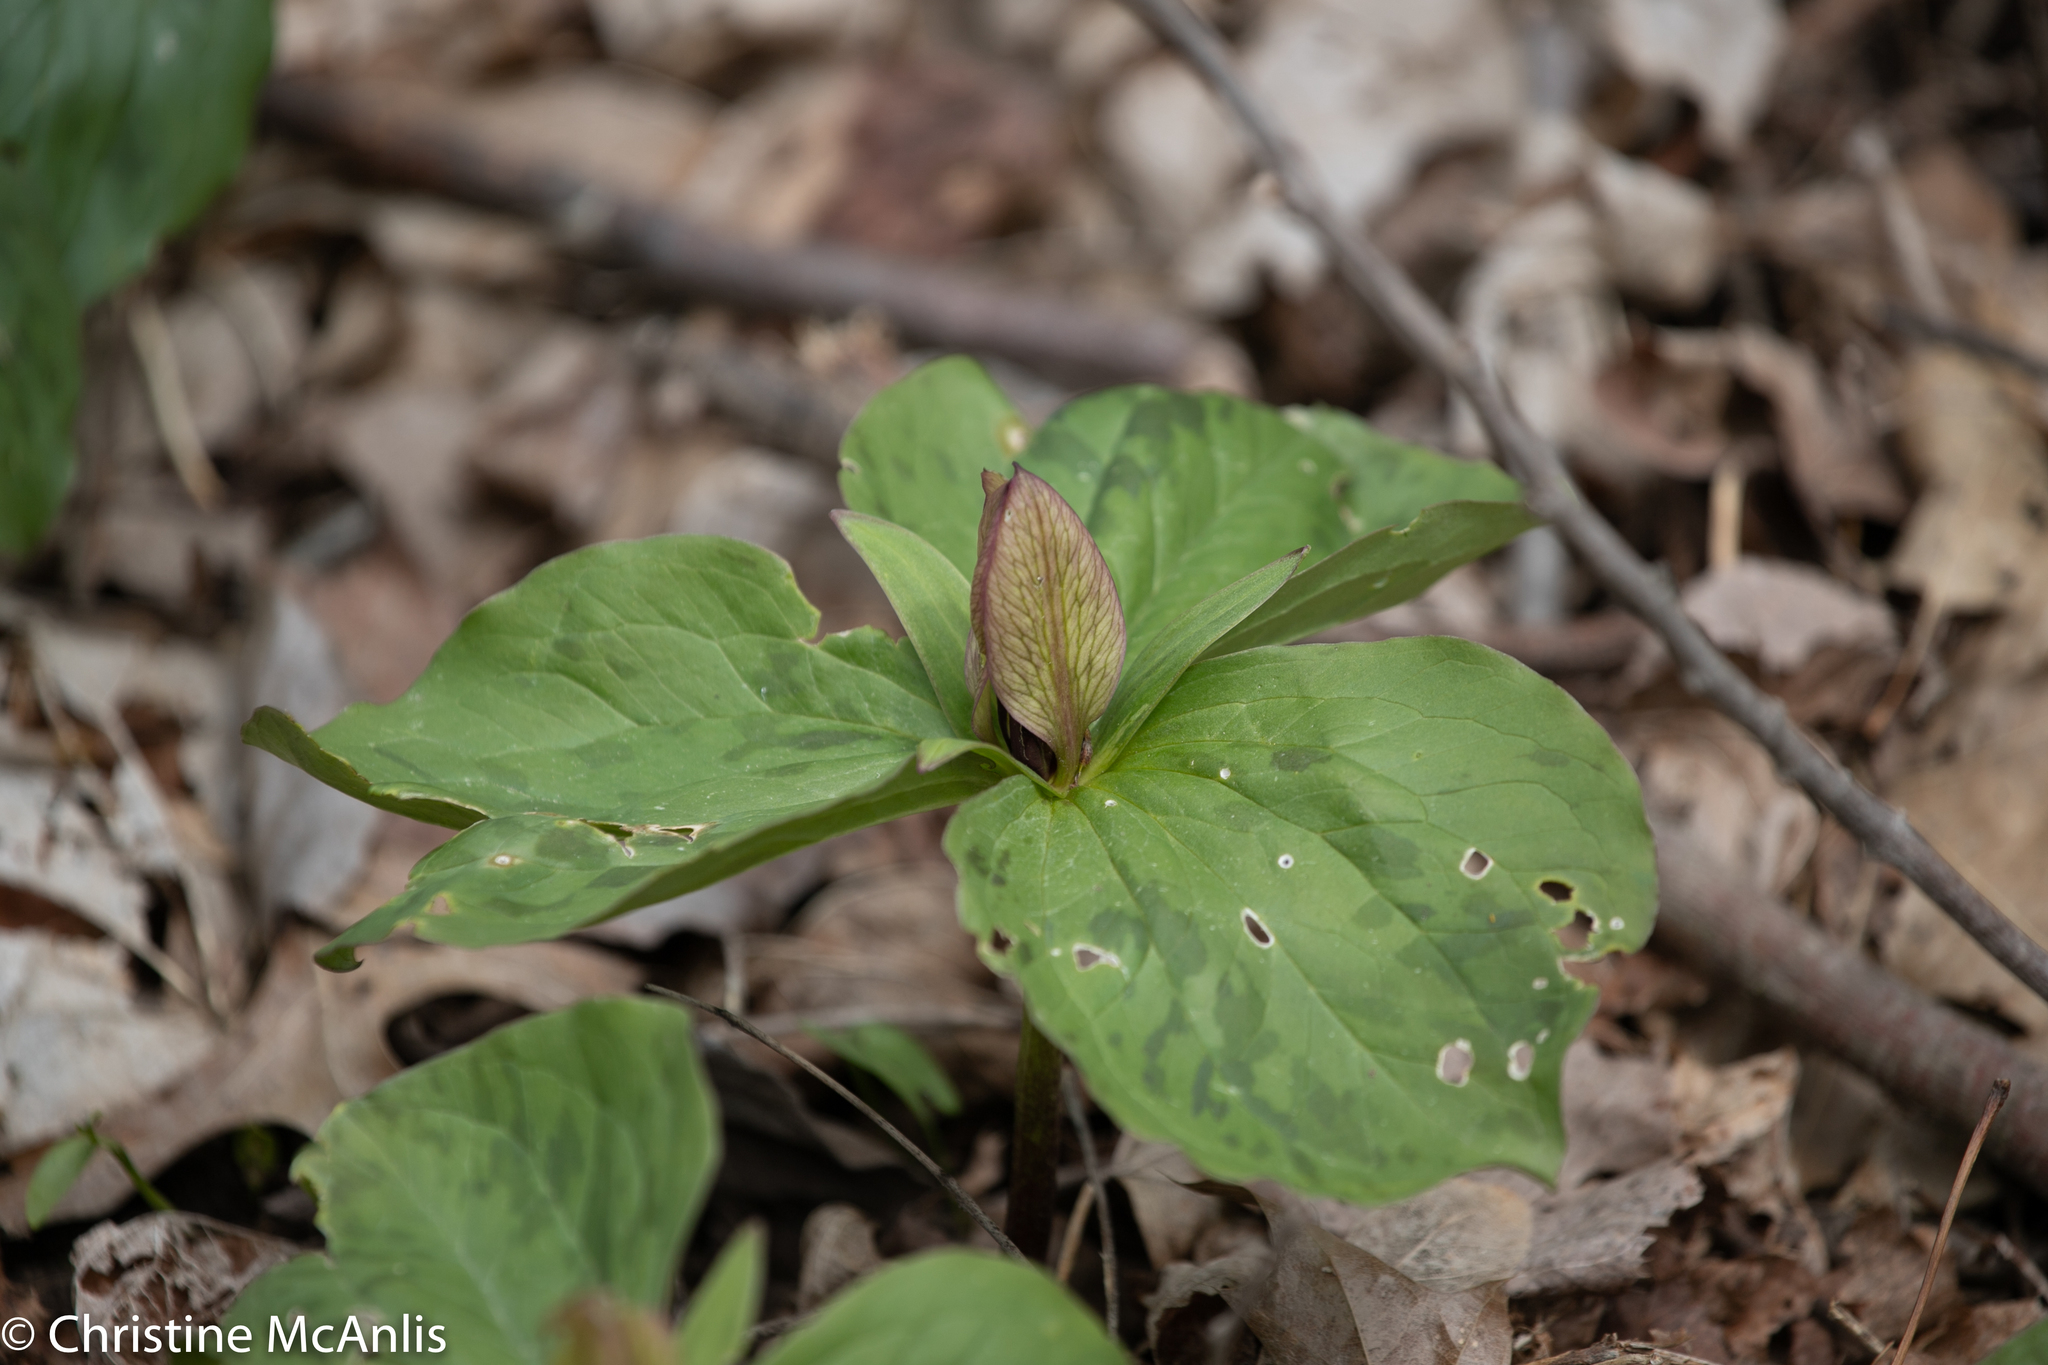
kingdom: Plantae
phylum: Tracheophyta
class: Liliopsida
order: Liliales
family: Melanthiaceae
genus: Trillium
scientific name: Trillium sessile
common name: Sessile trillium
